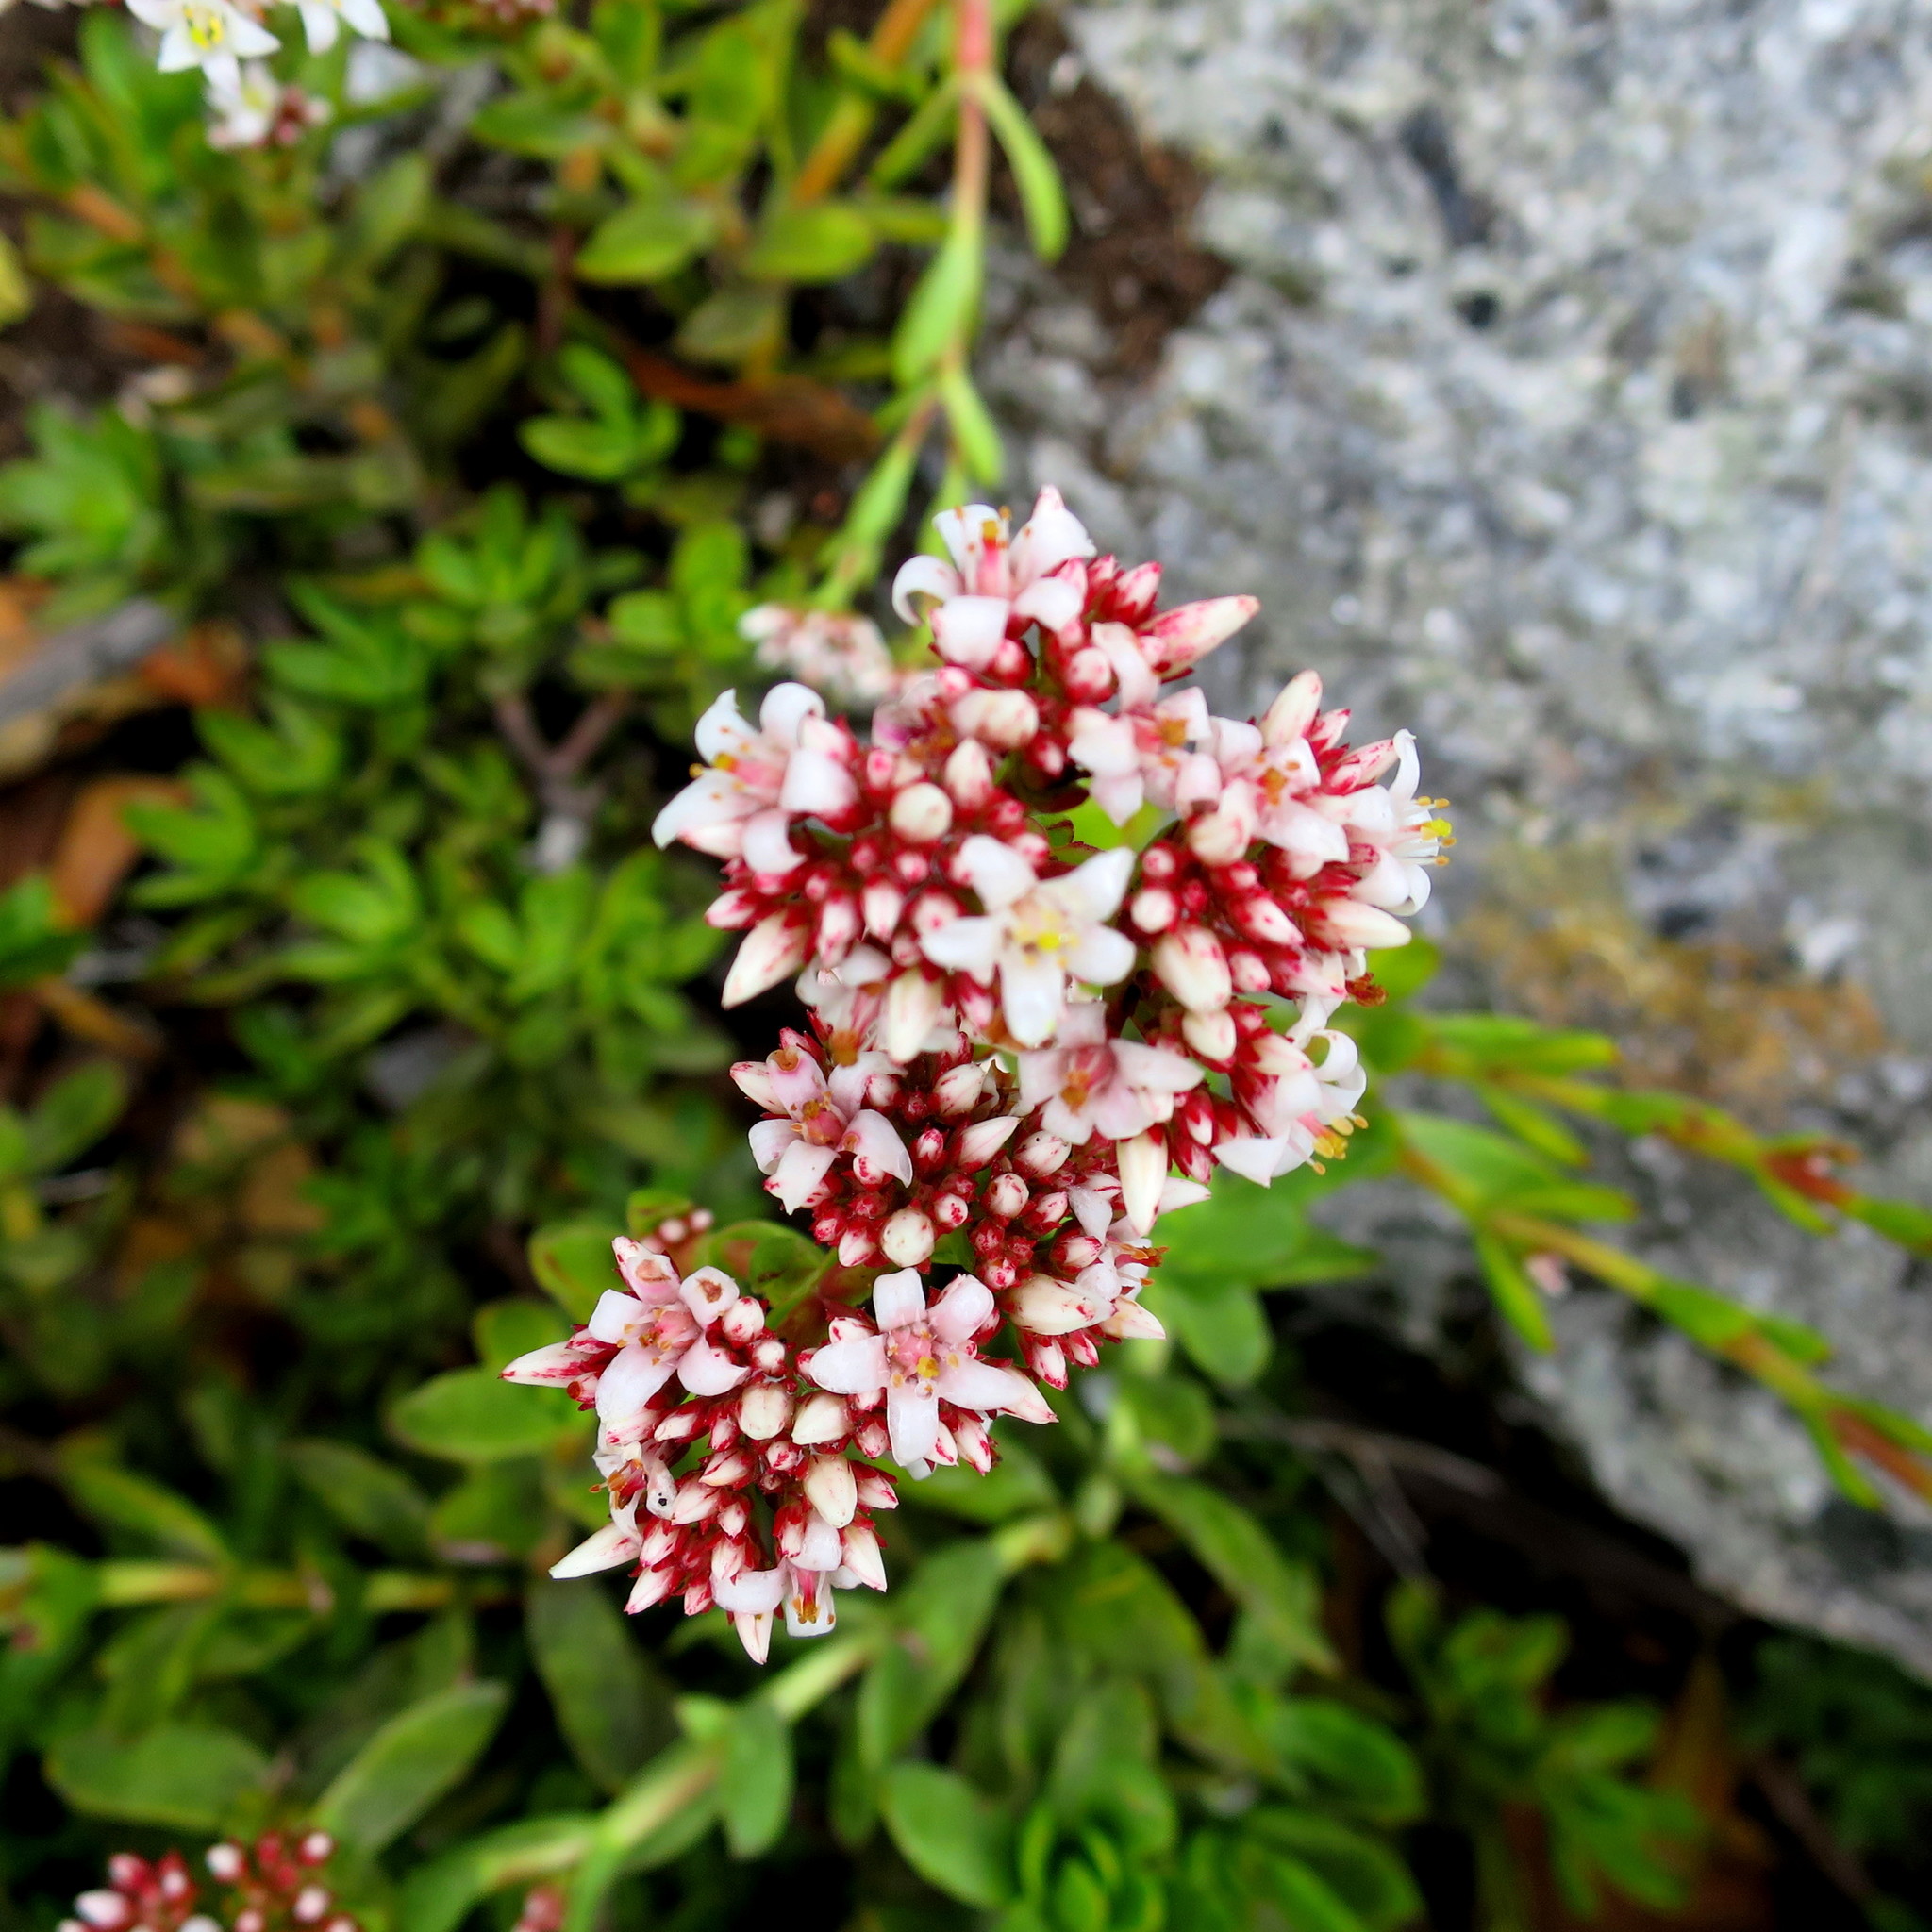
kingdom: Plantae
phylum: Tracheophyta
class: Magnoliopsida
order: Saxifragales
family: Crassulaceae
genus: Crassula
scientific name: Crassula rubricaulis
